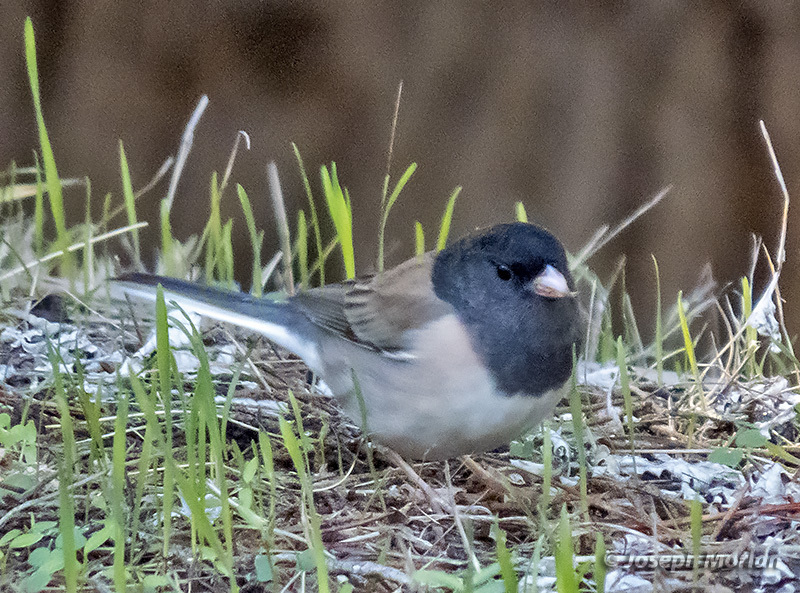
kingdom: Animalia
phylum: Chordata
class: Aves
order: Passeriformes
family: Passerellidae
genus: Junco
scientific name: Junco hyemalis
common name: Dark-eyed junco
